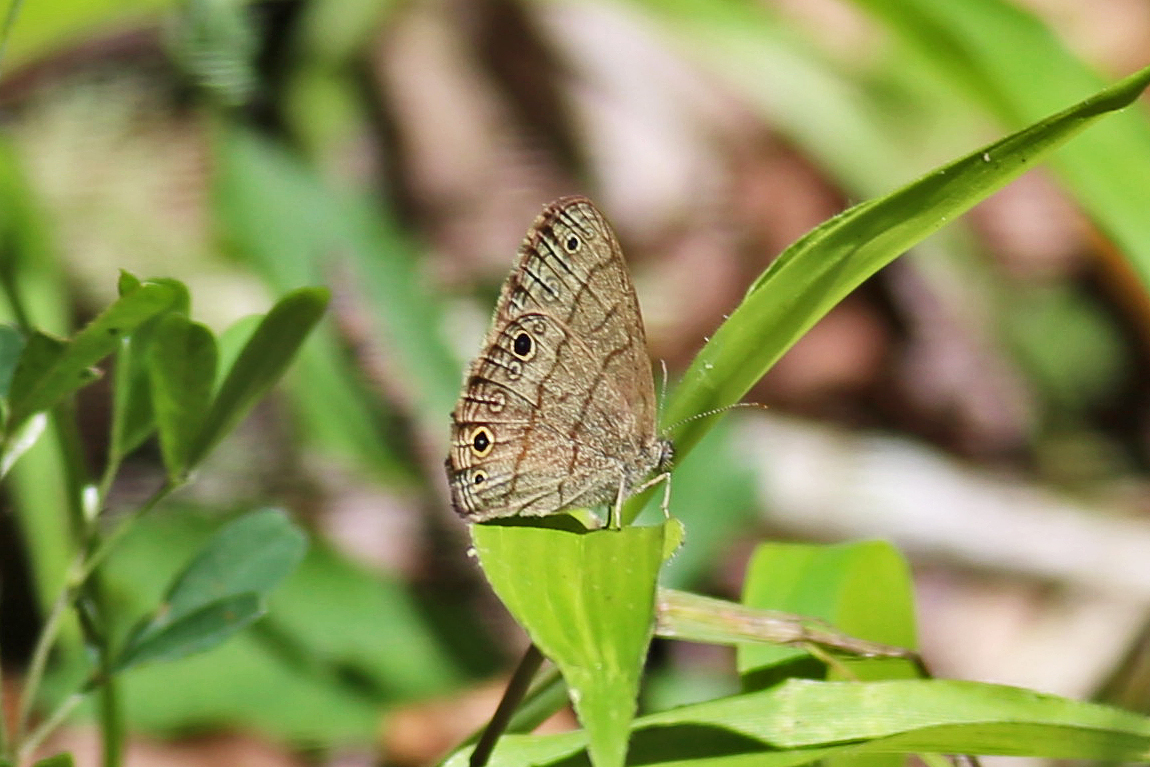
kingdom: Animalia
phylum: Arthropoda
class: Insecta
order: Lepidoptera
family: Nymphalidae
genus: Hermeuptychia
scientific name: Hermeuptychia hermes
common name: Hermes satyr
